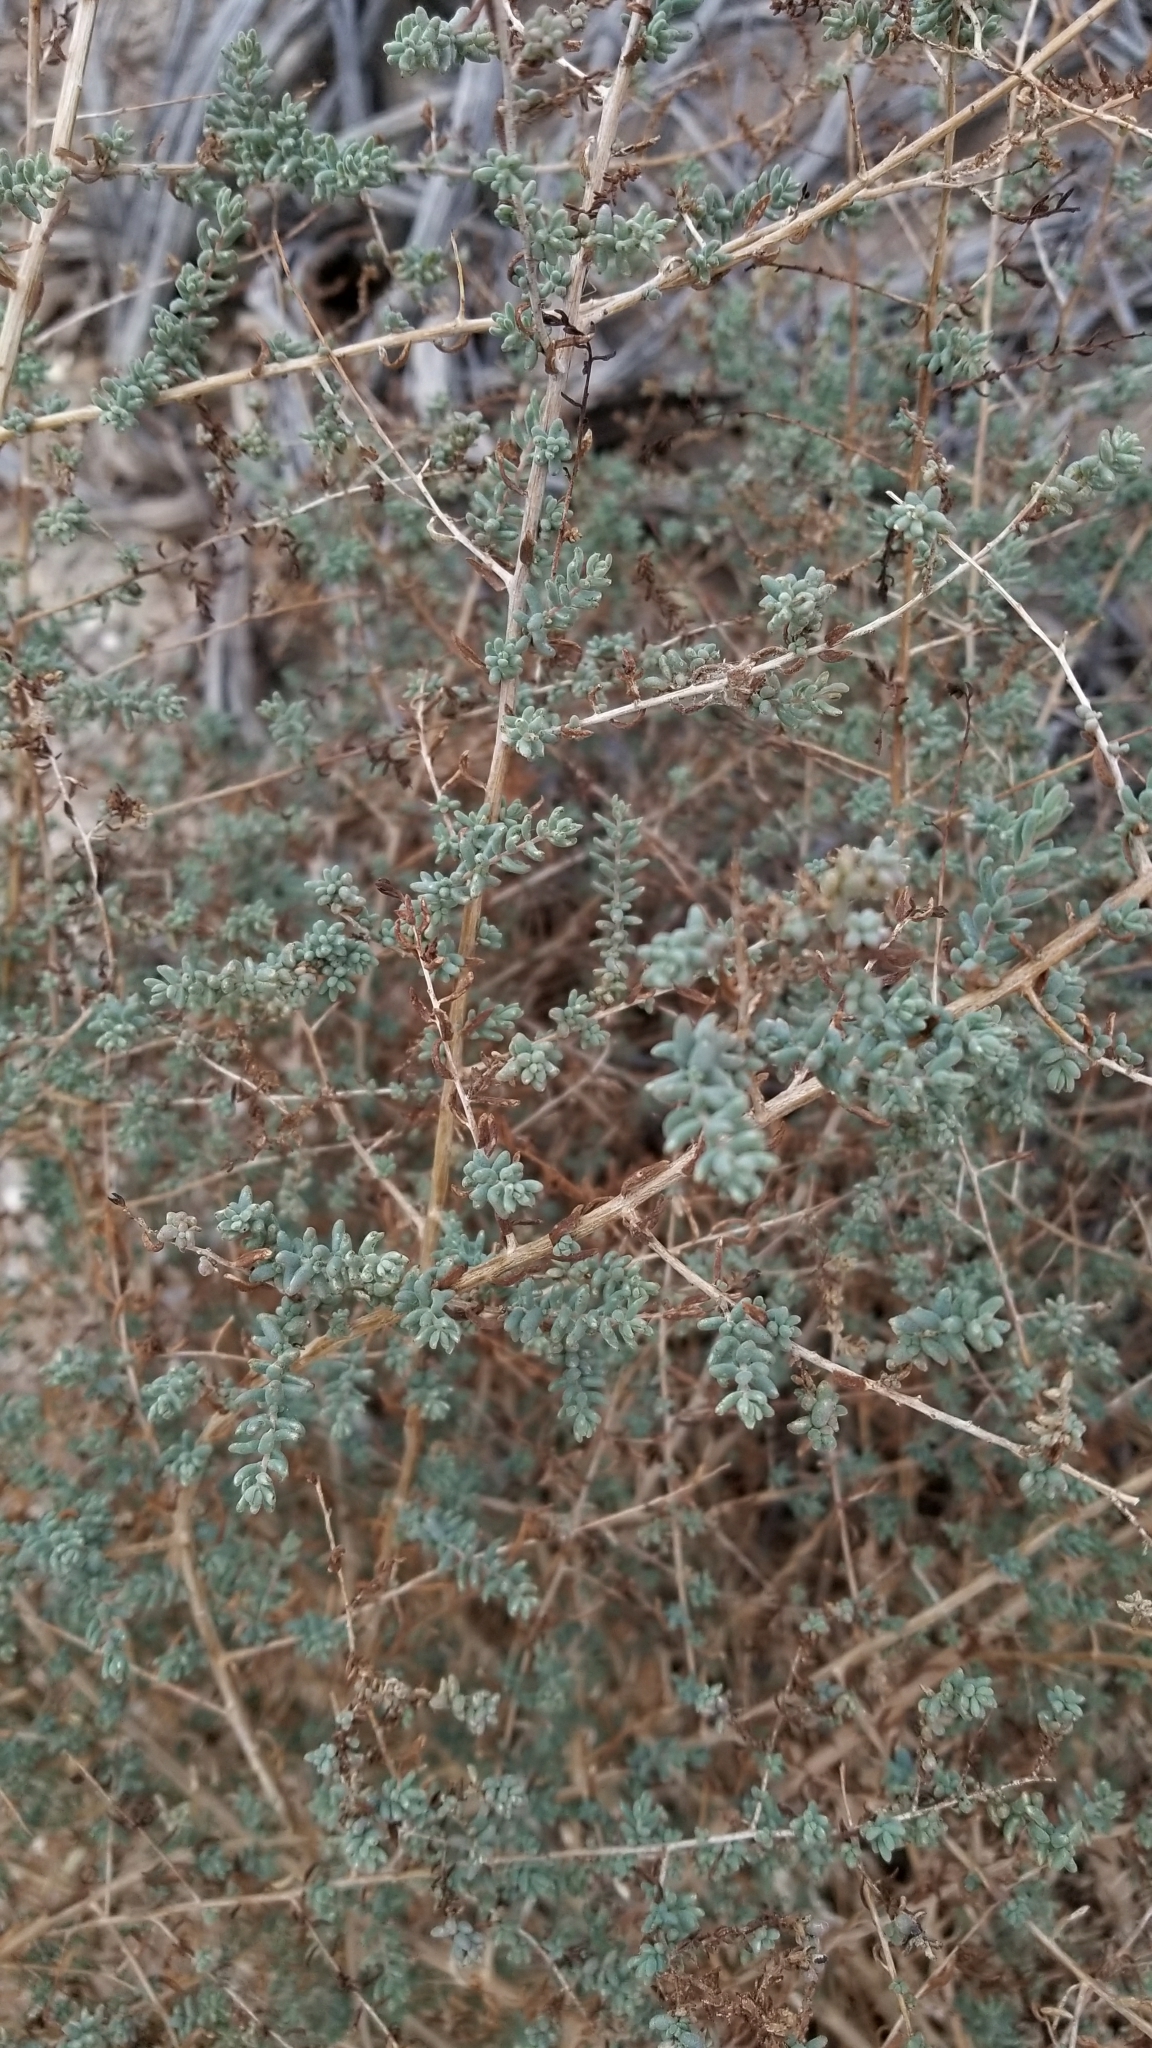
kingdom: Plantae
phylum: Tracheophyta
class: Magnoliopsida
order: Caryophyllales
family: Amaranthaceae
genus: Suaeda
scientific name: Suaeda nigra
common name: Bush seepweed
